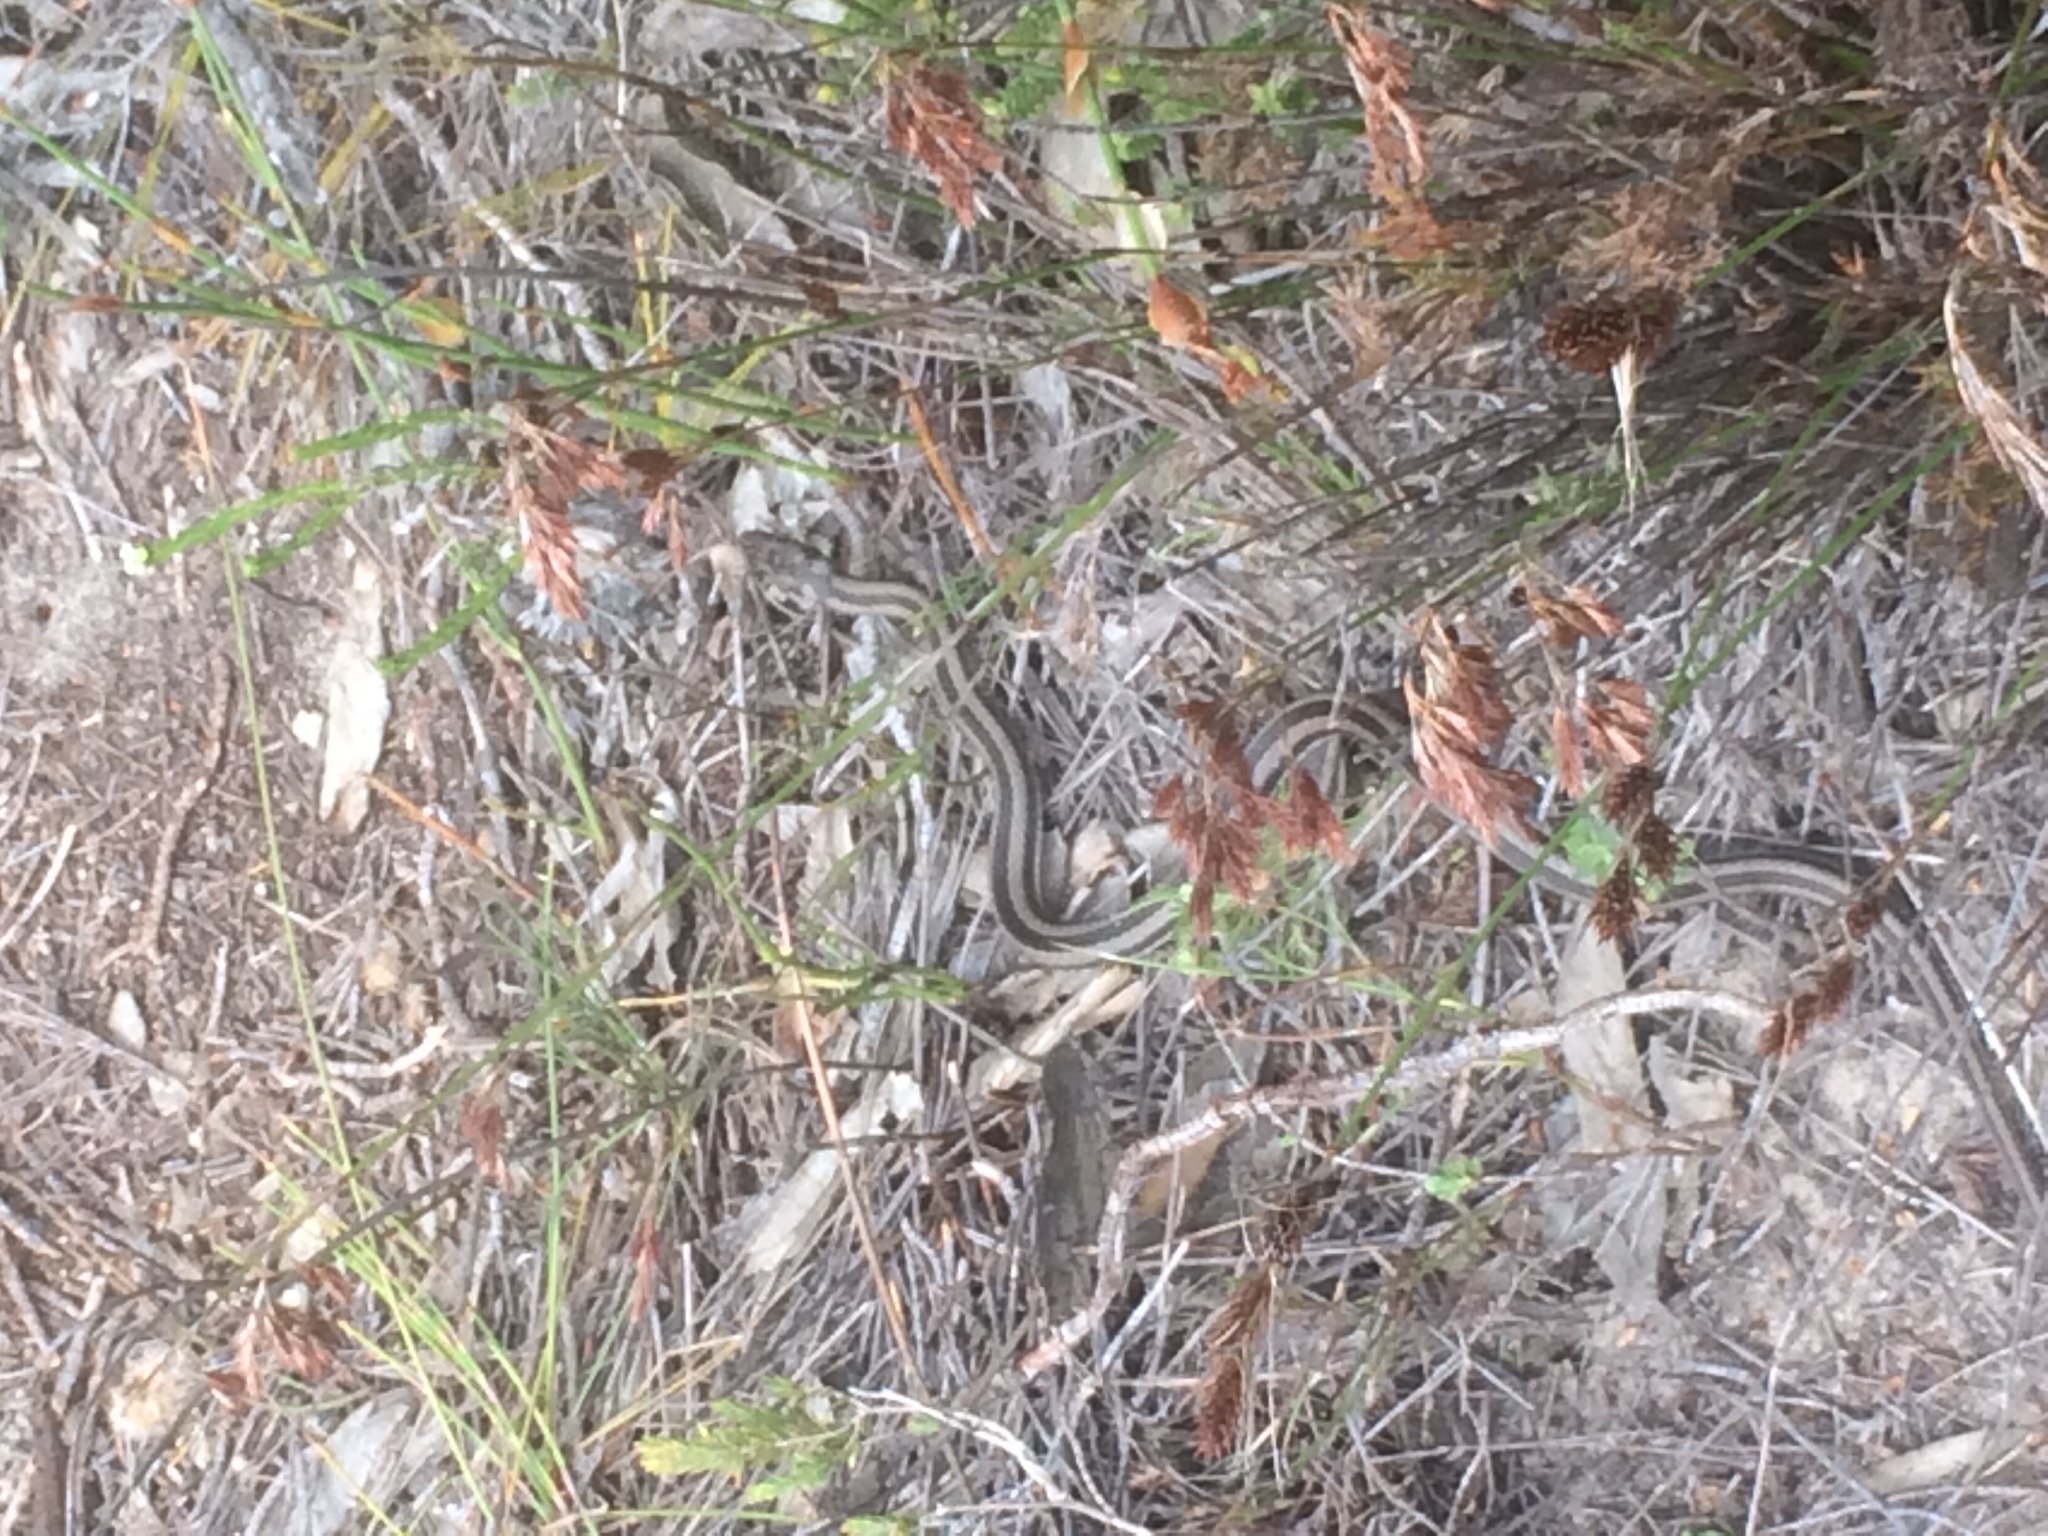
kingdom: Animalia
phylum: Chordata
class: Squamata
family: Psammophiidae
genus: Psammophis
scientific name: Psammophis crucifer
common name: Cross-marked grass snake
